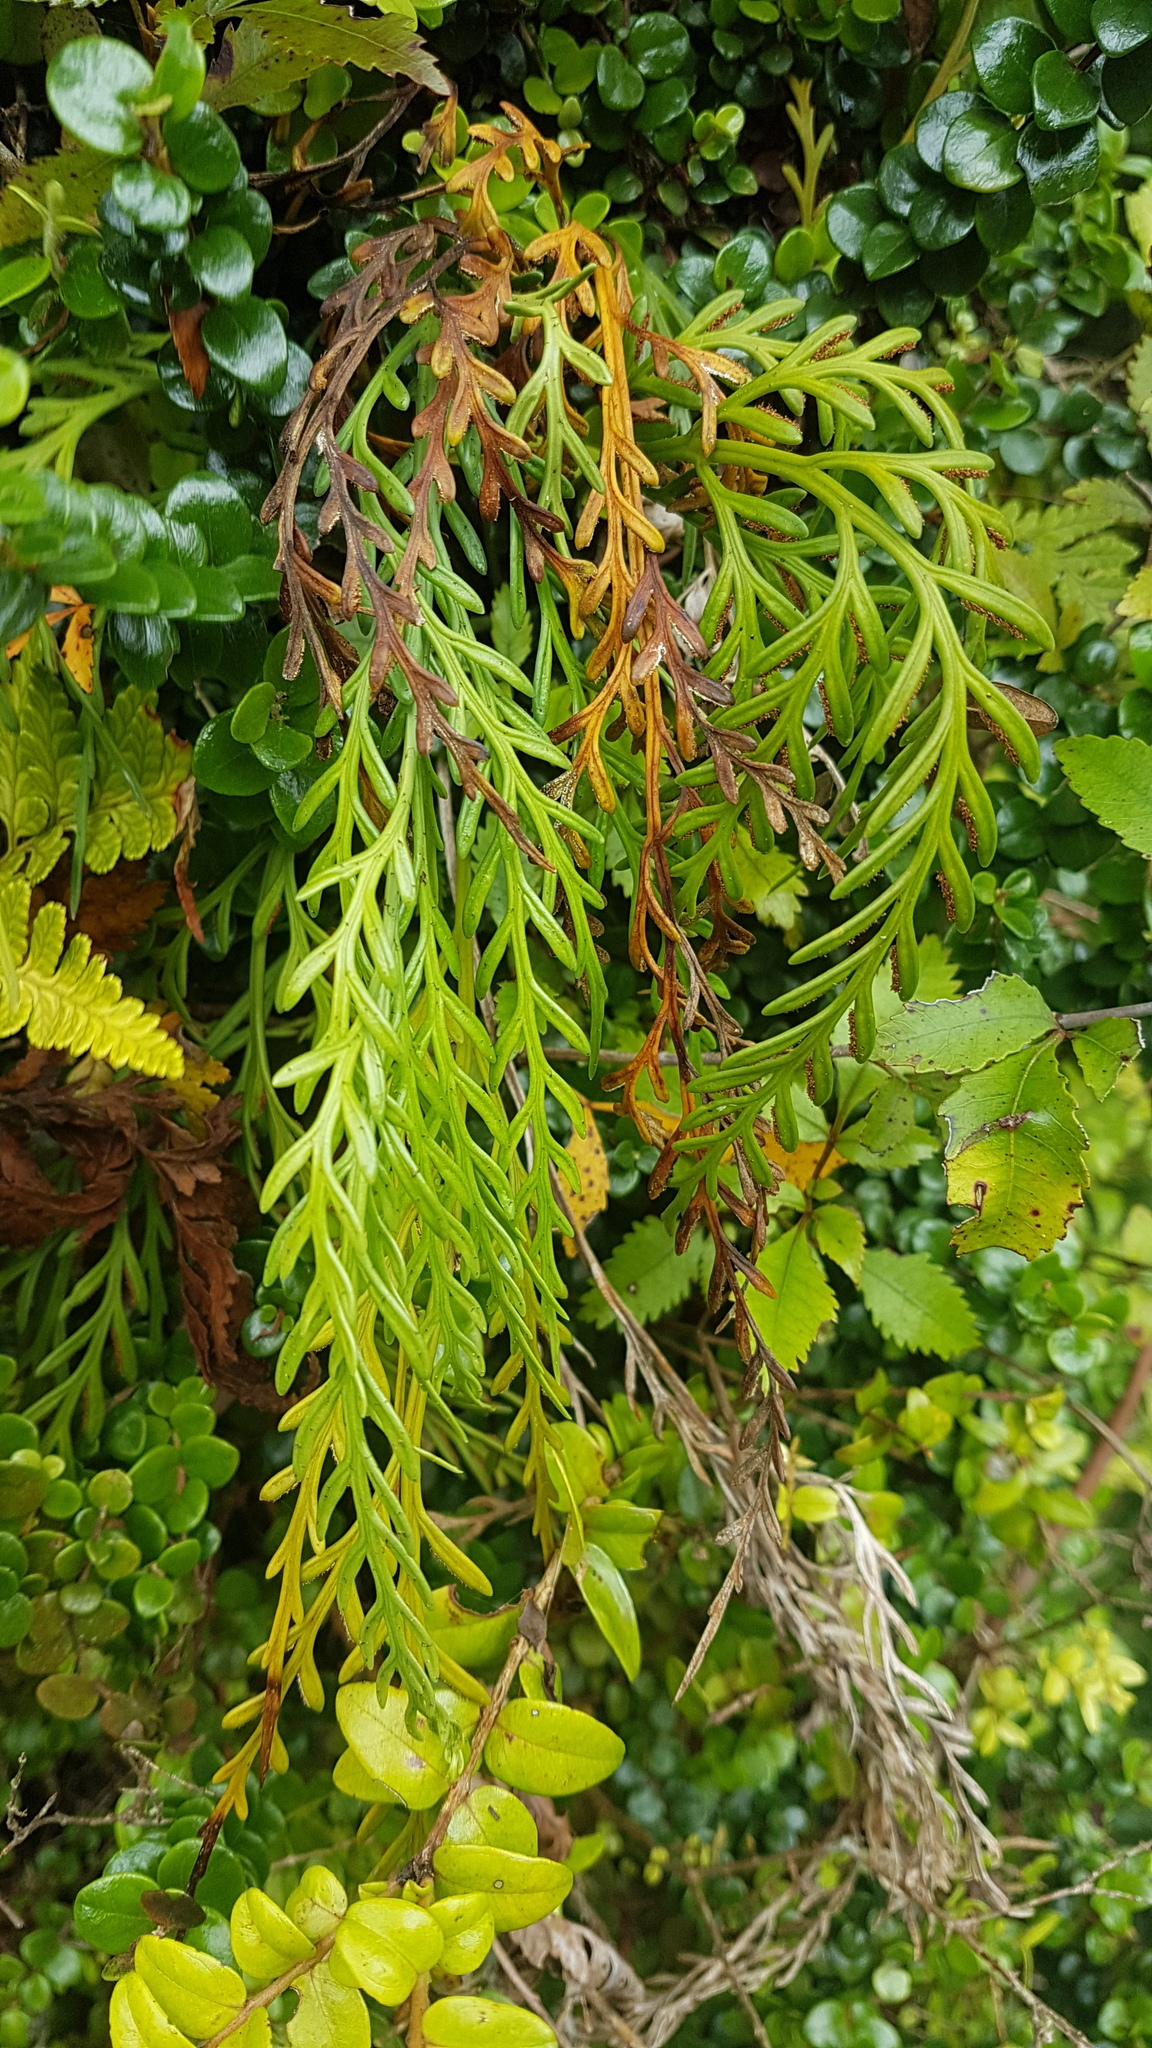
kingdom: Plantae
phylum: Tracheophyta
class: Polypodiopsida
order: Polypodiales
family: Aspleniaceae
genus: Asplenium
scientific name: Asplenium flaccidum
